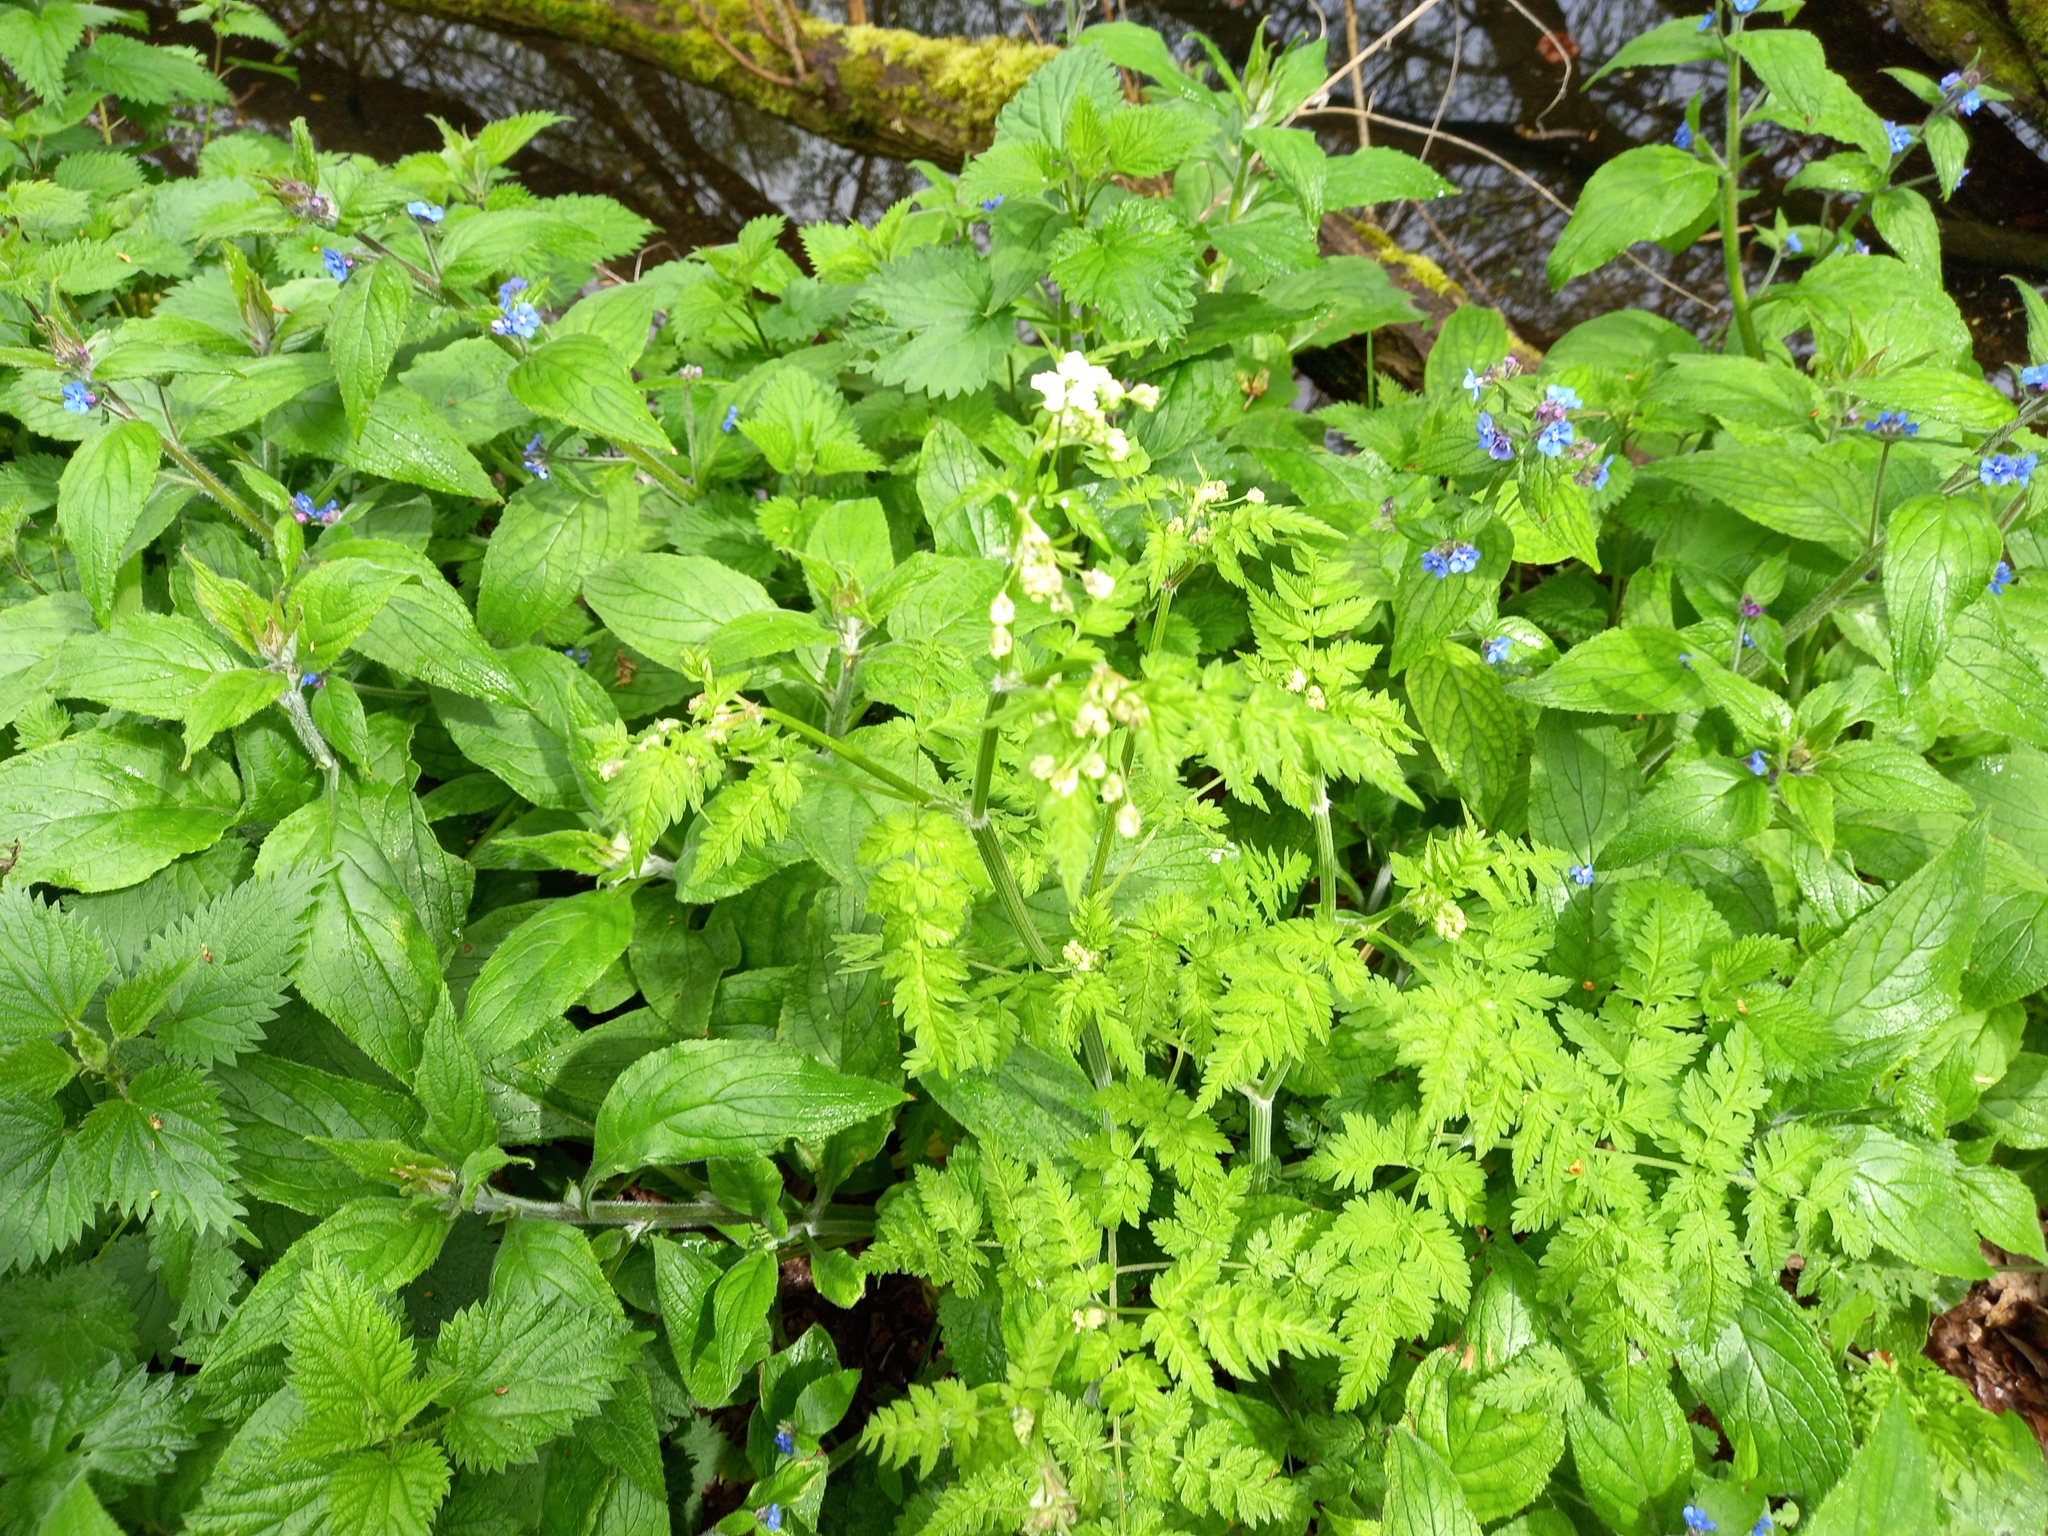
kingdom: Plantae
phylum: Tracheophyta
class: Magnoliopsida
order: Boraginales
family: Boraginaceae
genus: Myosotis
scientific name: Myosotis sylvatica
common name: Wood forget-me-not
